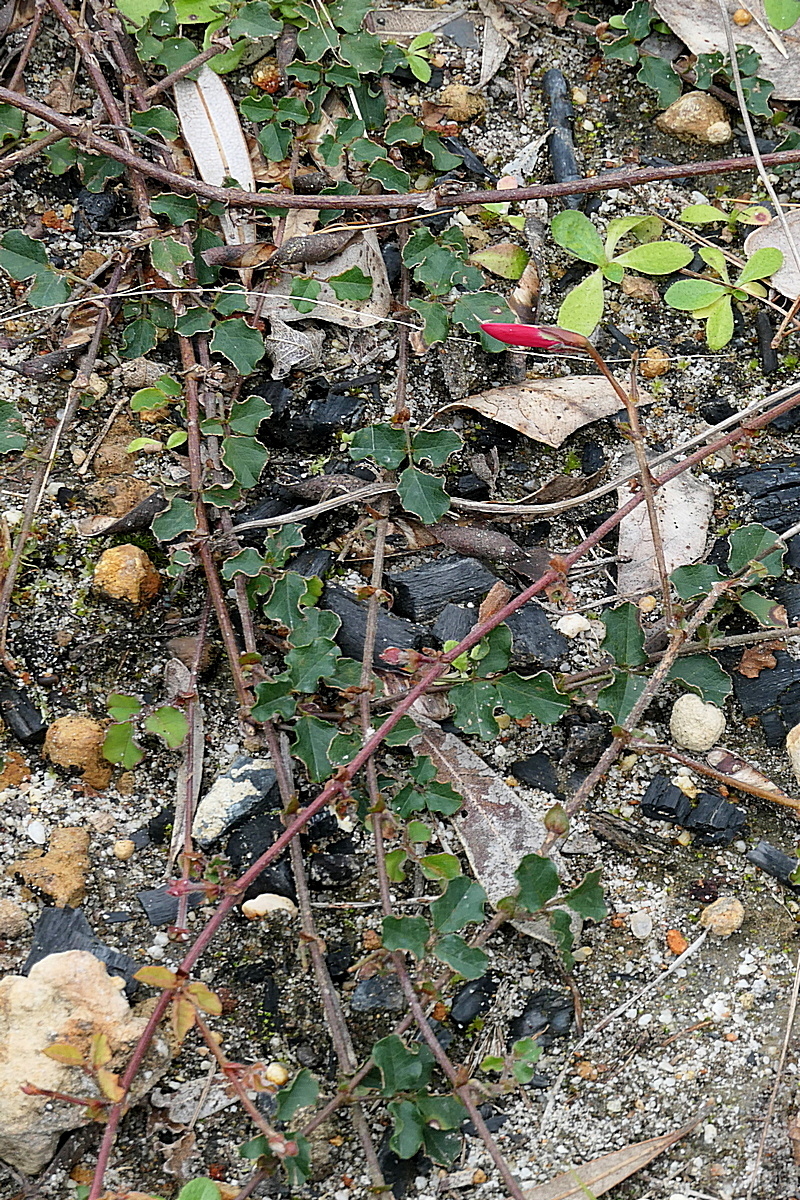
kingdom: Plantae
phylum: Tracheophyta
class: Magnoliopsida
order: Fabales
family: Fabaceae
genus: Kennedia
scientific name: Kennedia prostrata
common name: Running-postman
